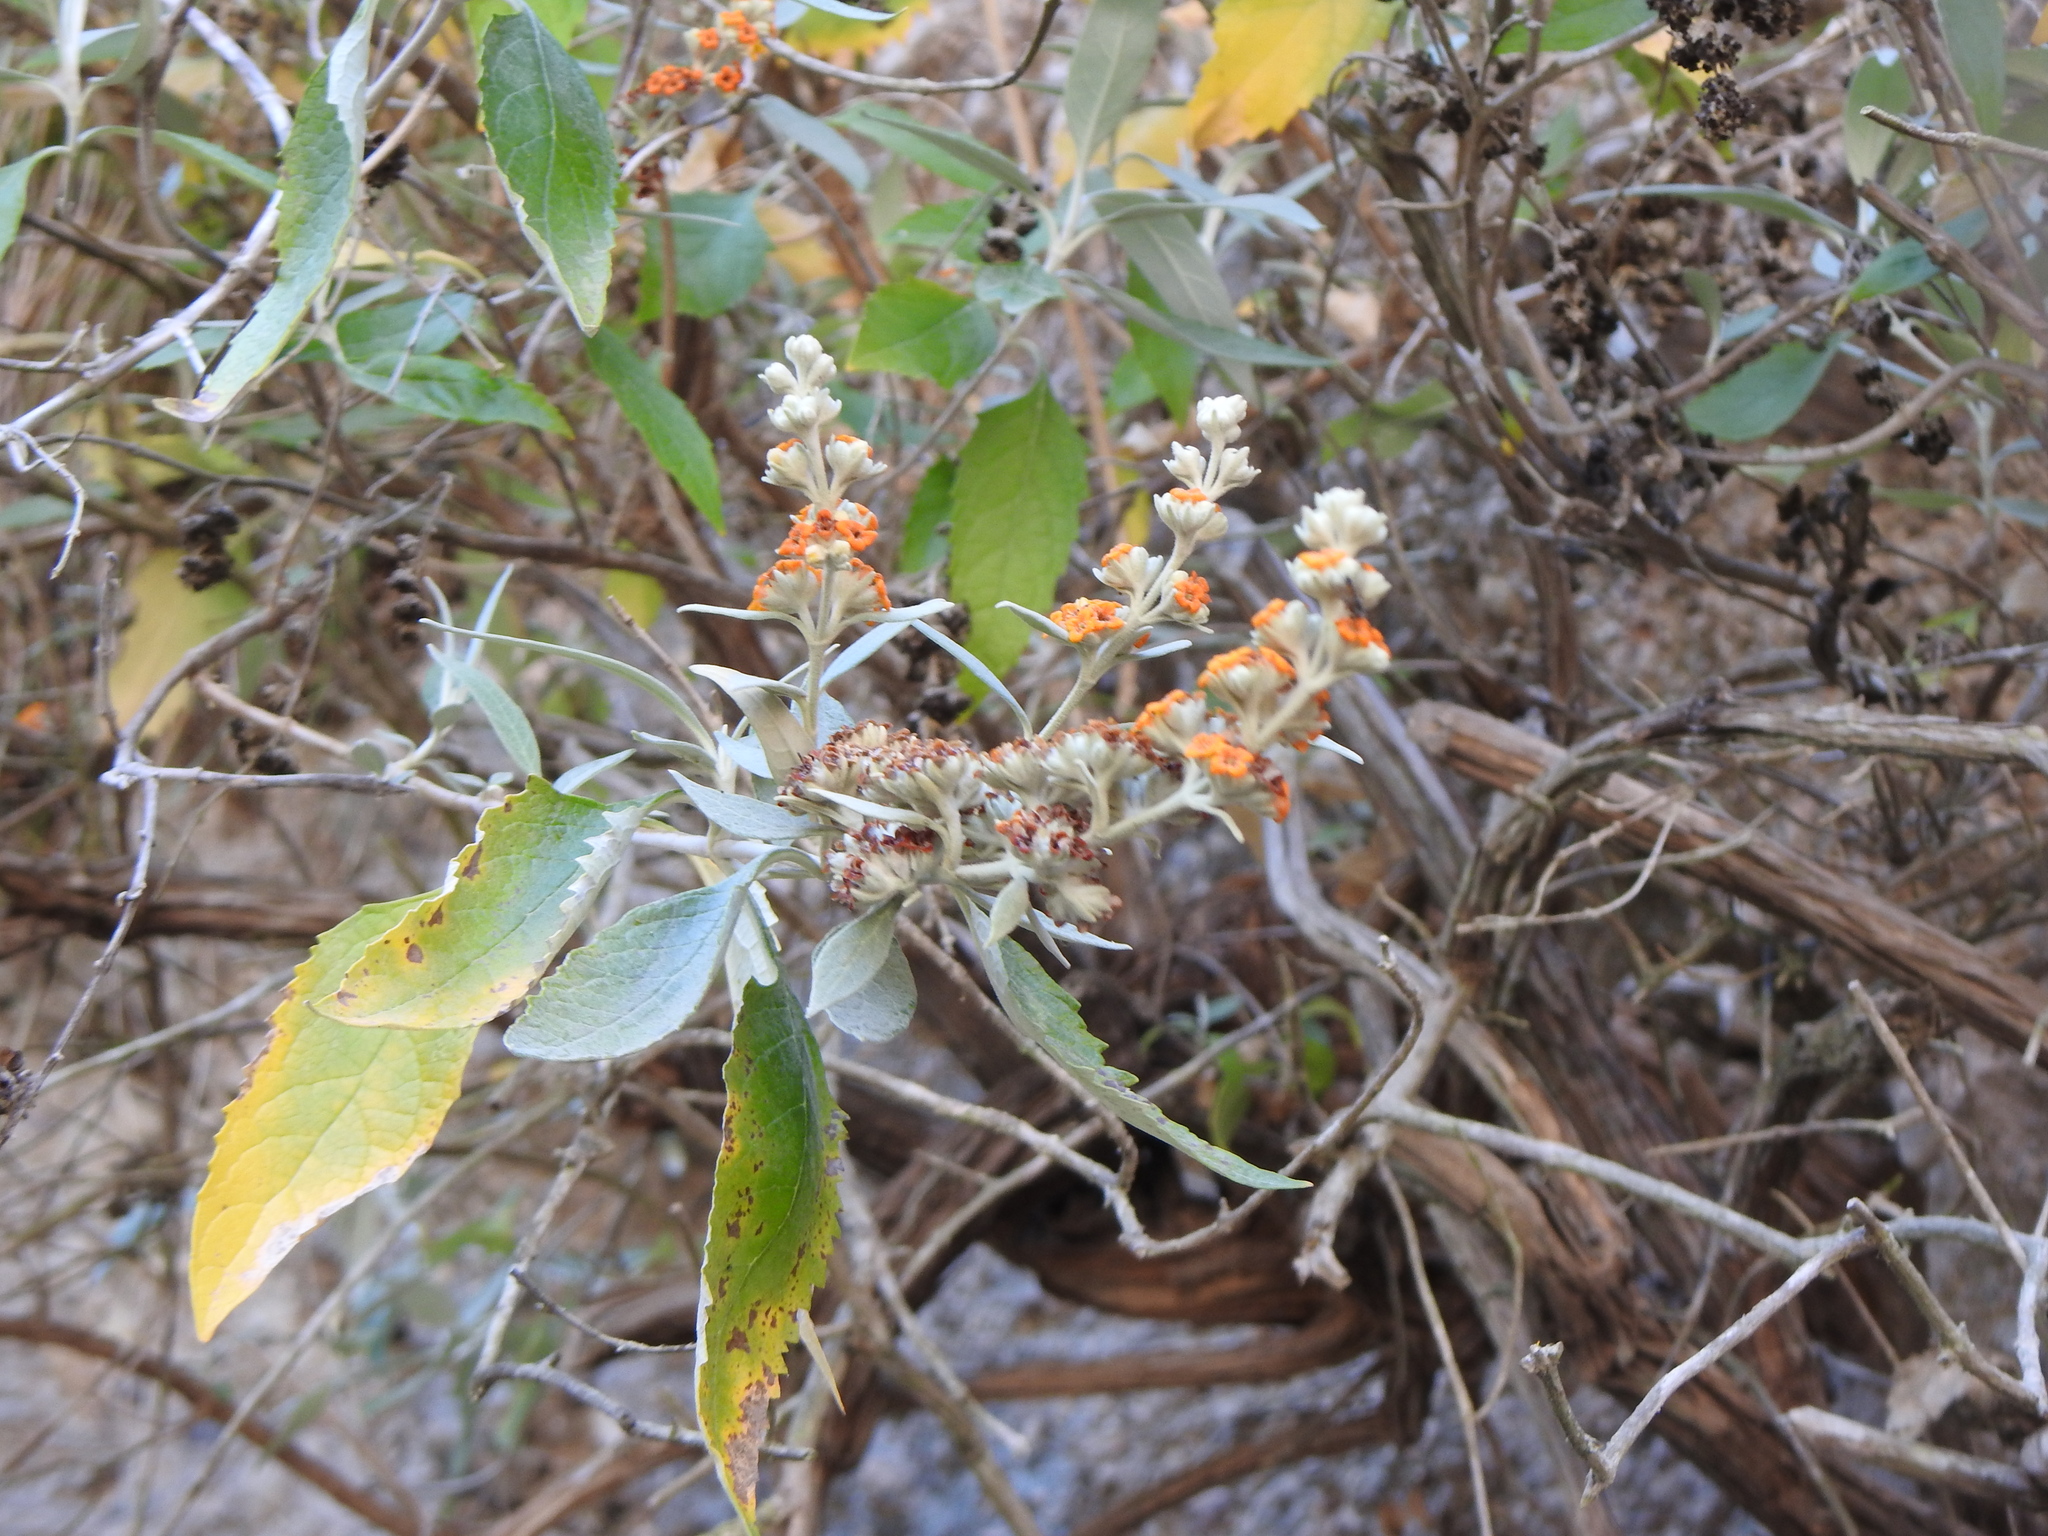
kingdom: Plantae
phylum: Tracheophyta
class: Magnoliopsida
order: Lamiales
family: Scrophulariaceae
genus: Buddleja
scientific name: Buddleja tucumanensis
